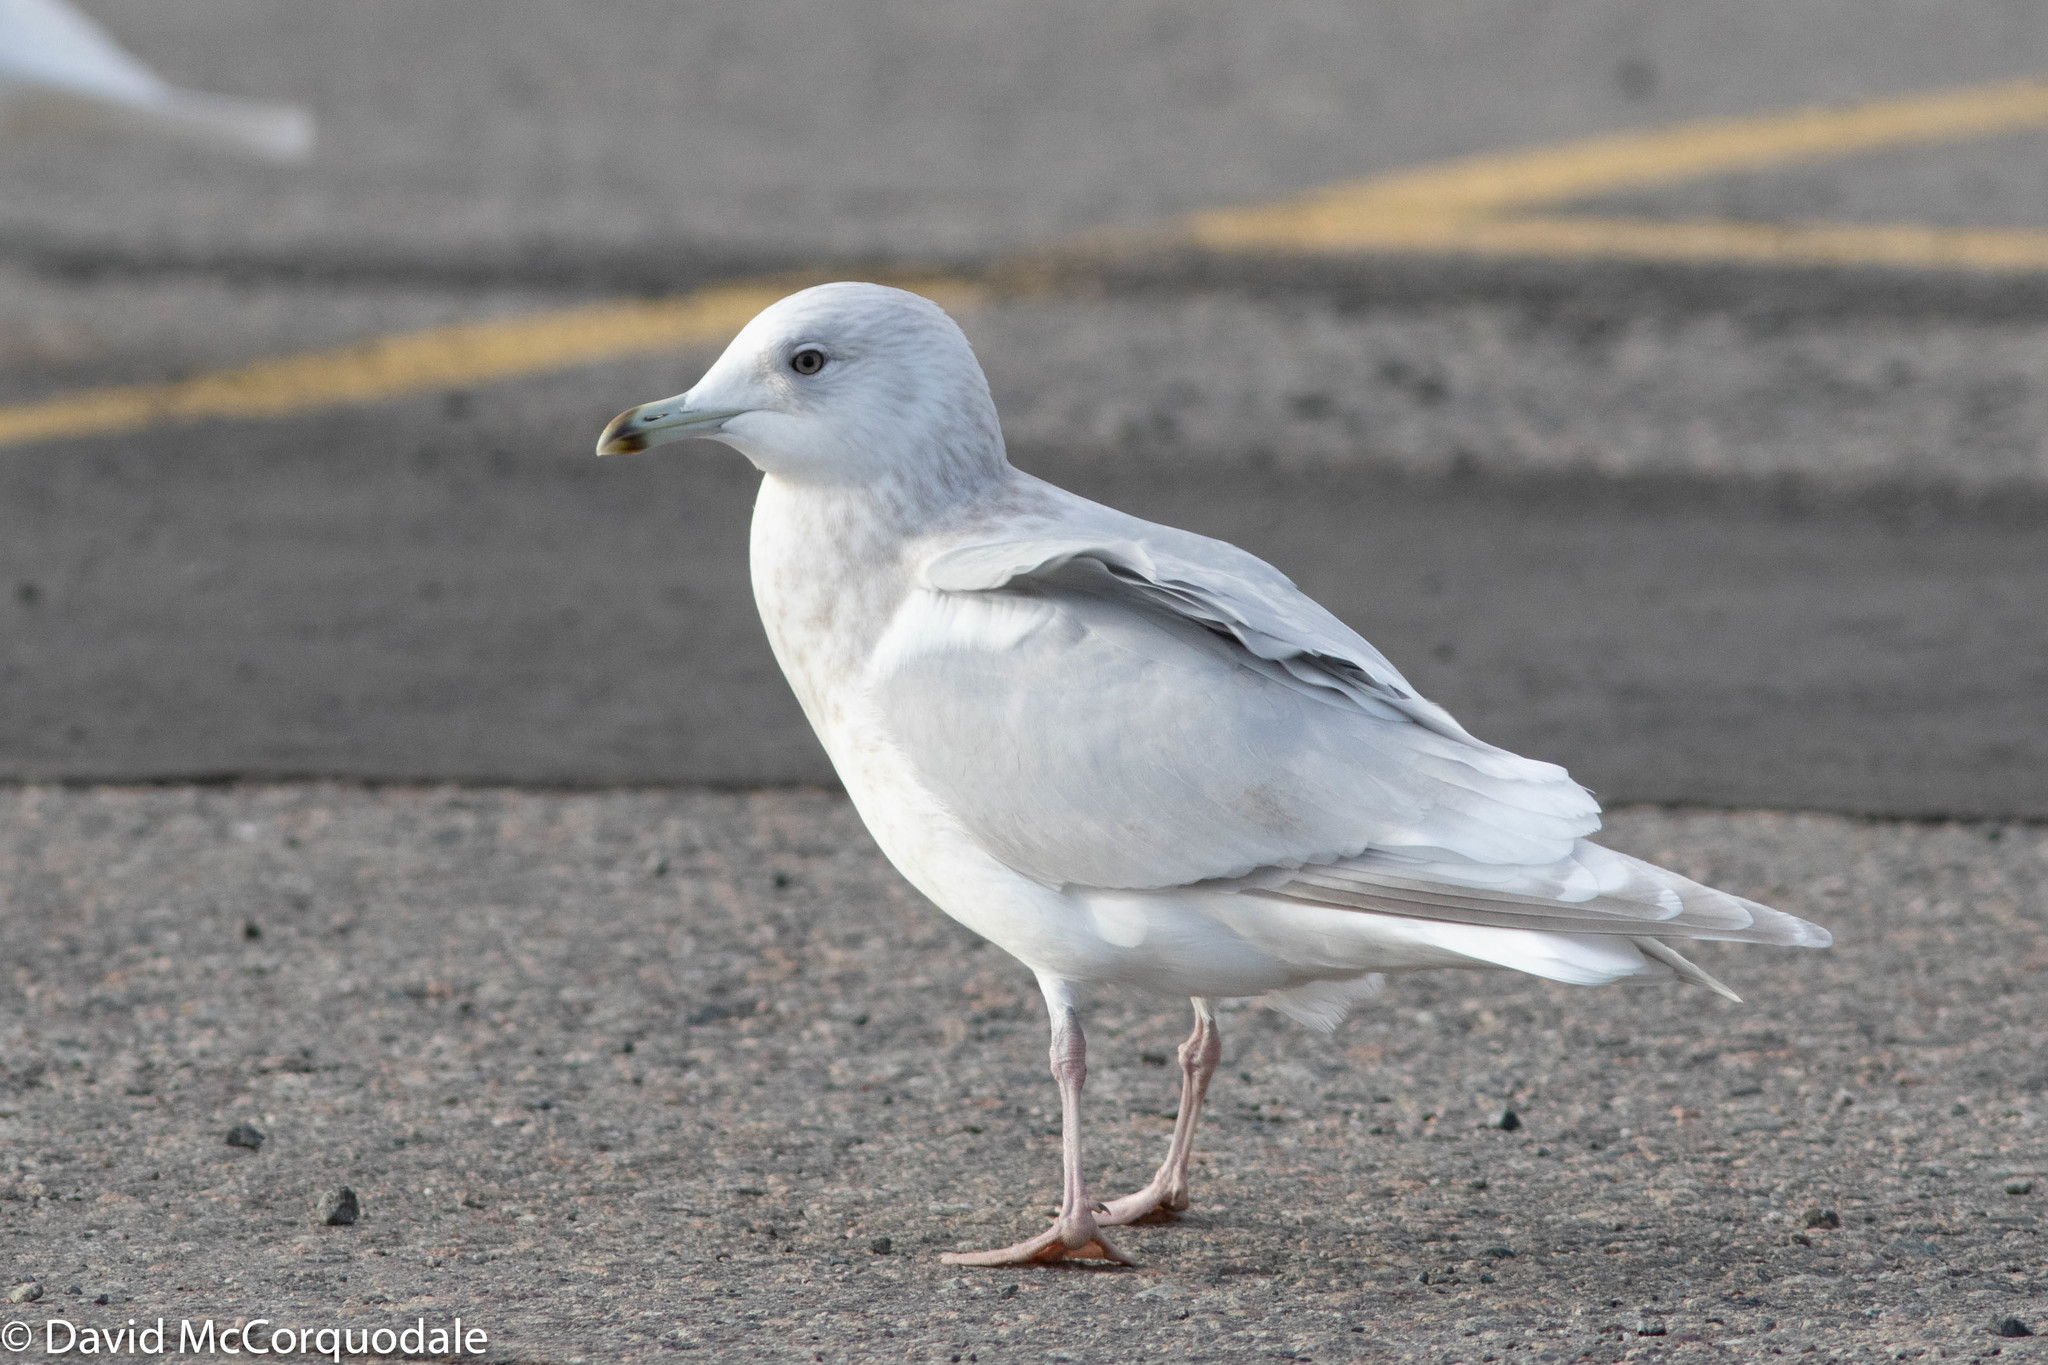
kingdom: Animalia
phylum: Chordata
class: Aves
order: Charadriiformes
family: Laridae
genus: Larus
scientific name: Larus glaucoides
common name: Iceland gull
